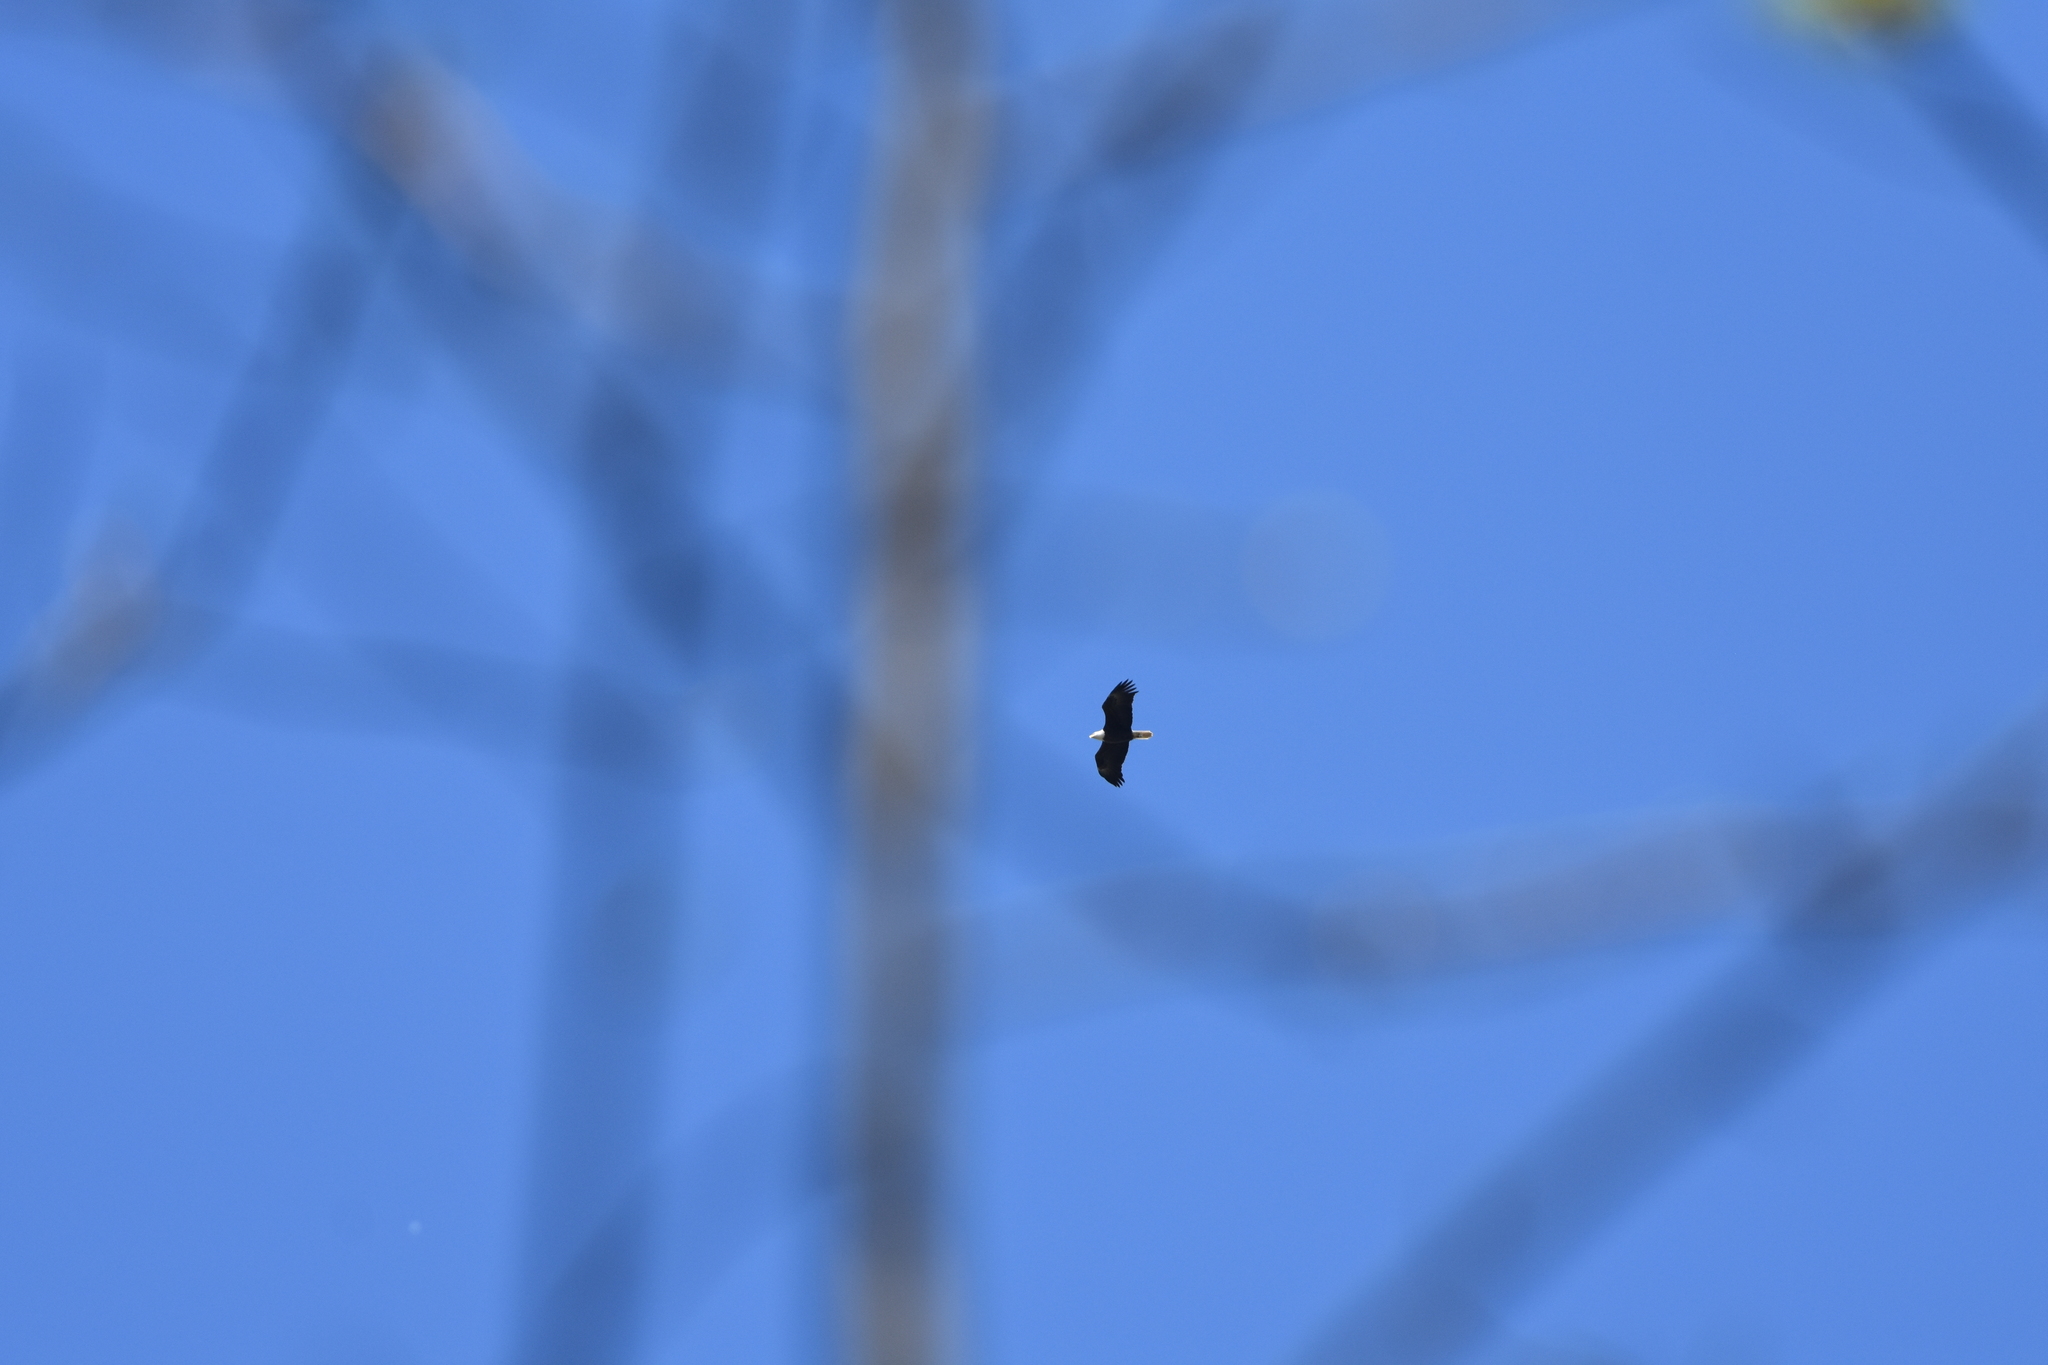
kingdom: Animalia
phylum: Chordata
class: Aves
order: Accipitriformes
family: Accipitridae
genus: Haliaeetus
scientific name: Haliaeetus leucocephalus
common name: Bald eagle
